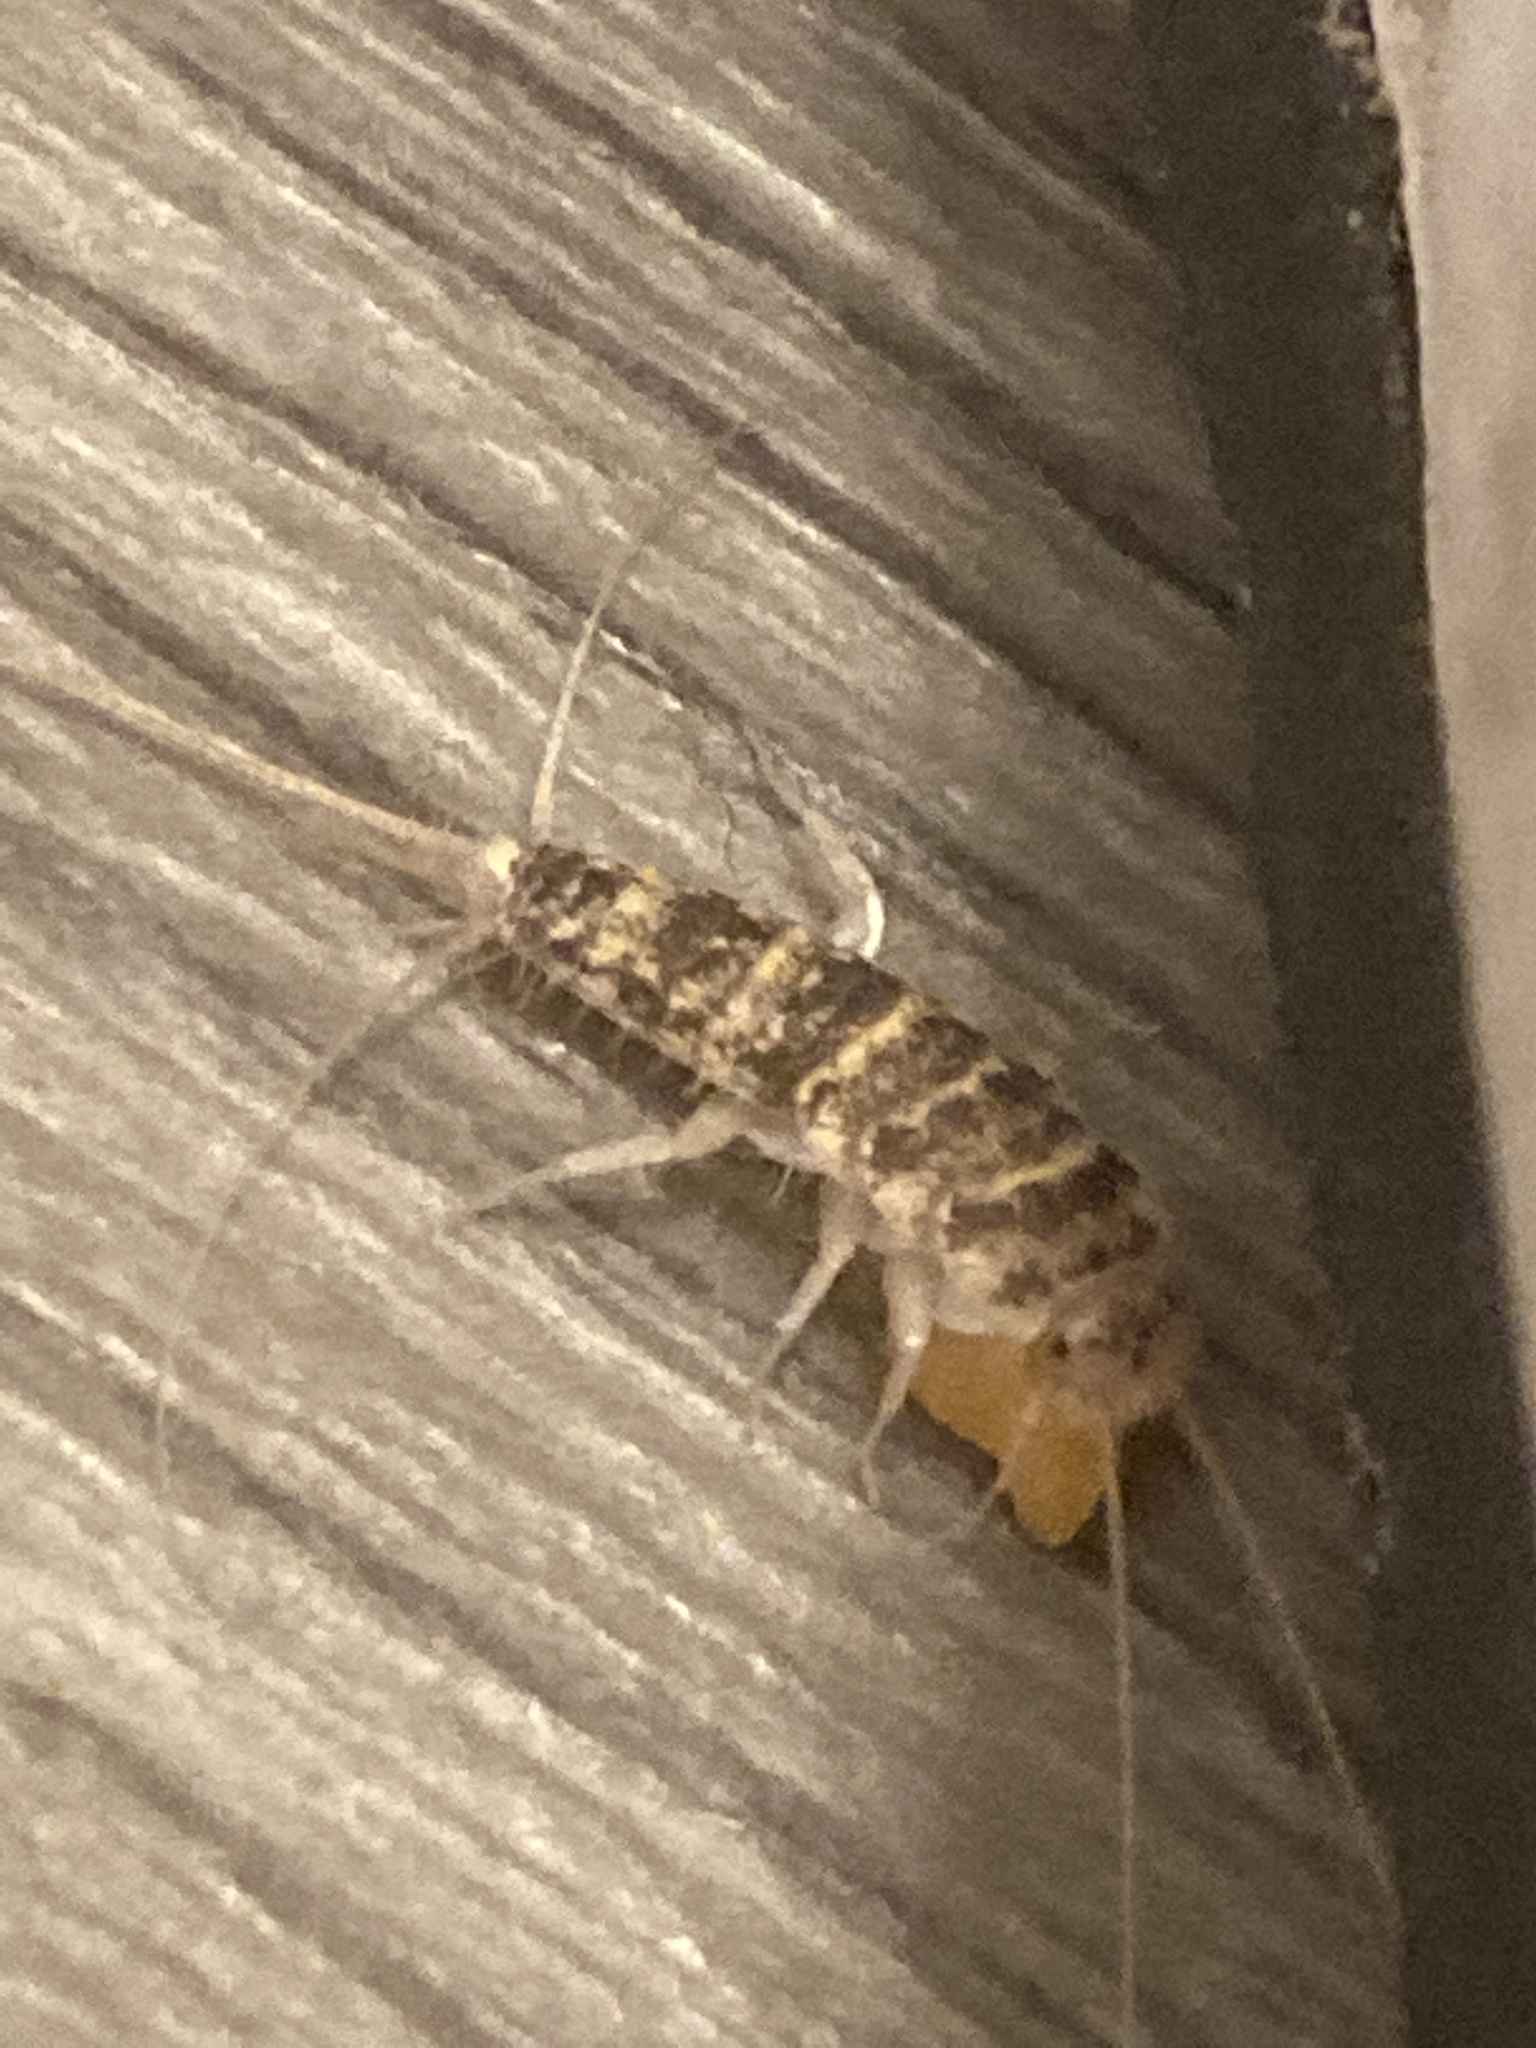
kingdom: Animalia
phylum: Arthropoda
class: Insecta
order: Zygentoma
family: Lepismatidae
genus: Thermobia
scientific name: Thermobia domestica
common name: Firebrat
